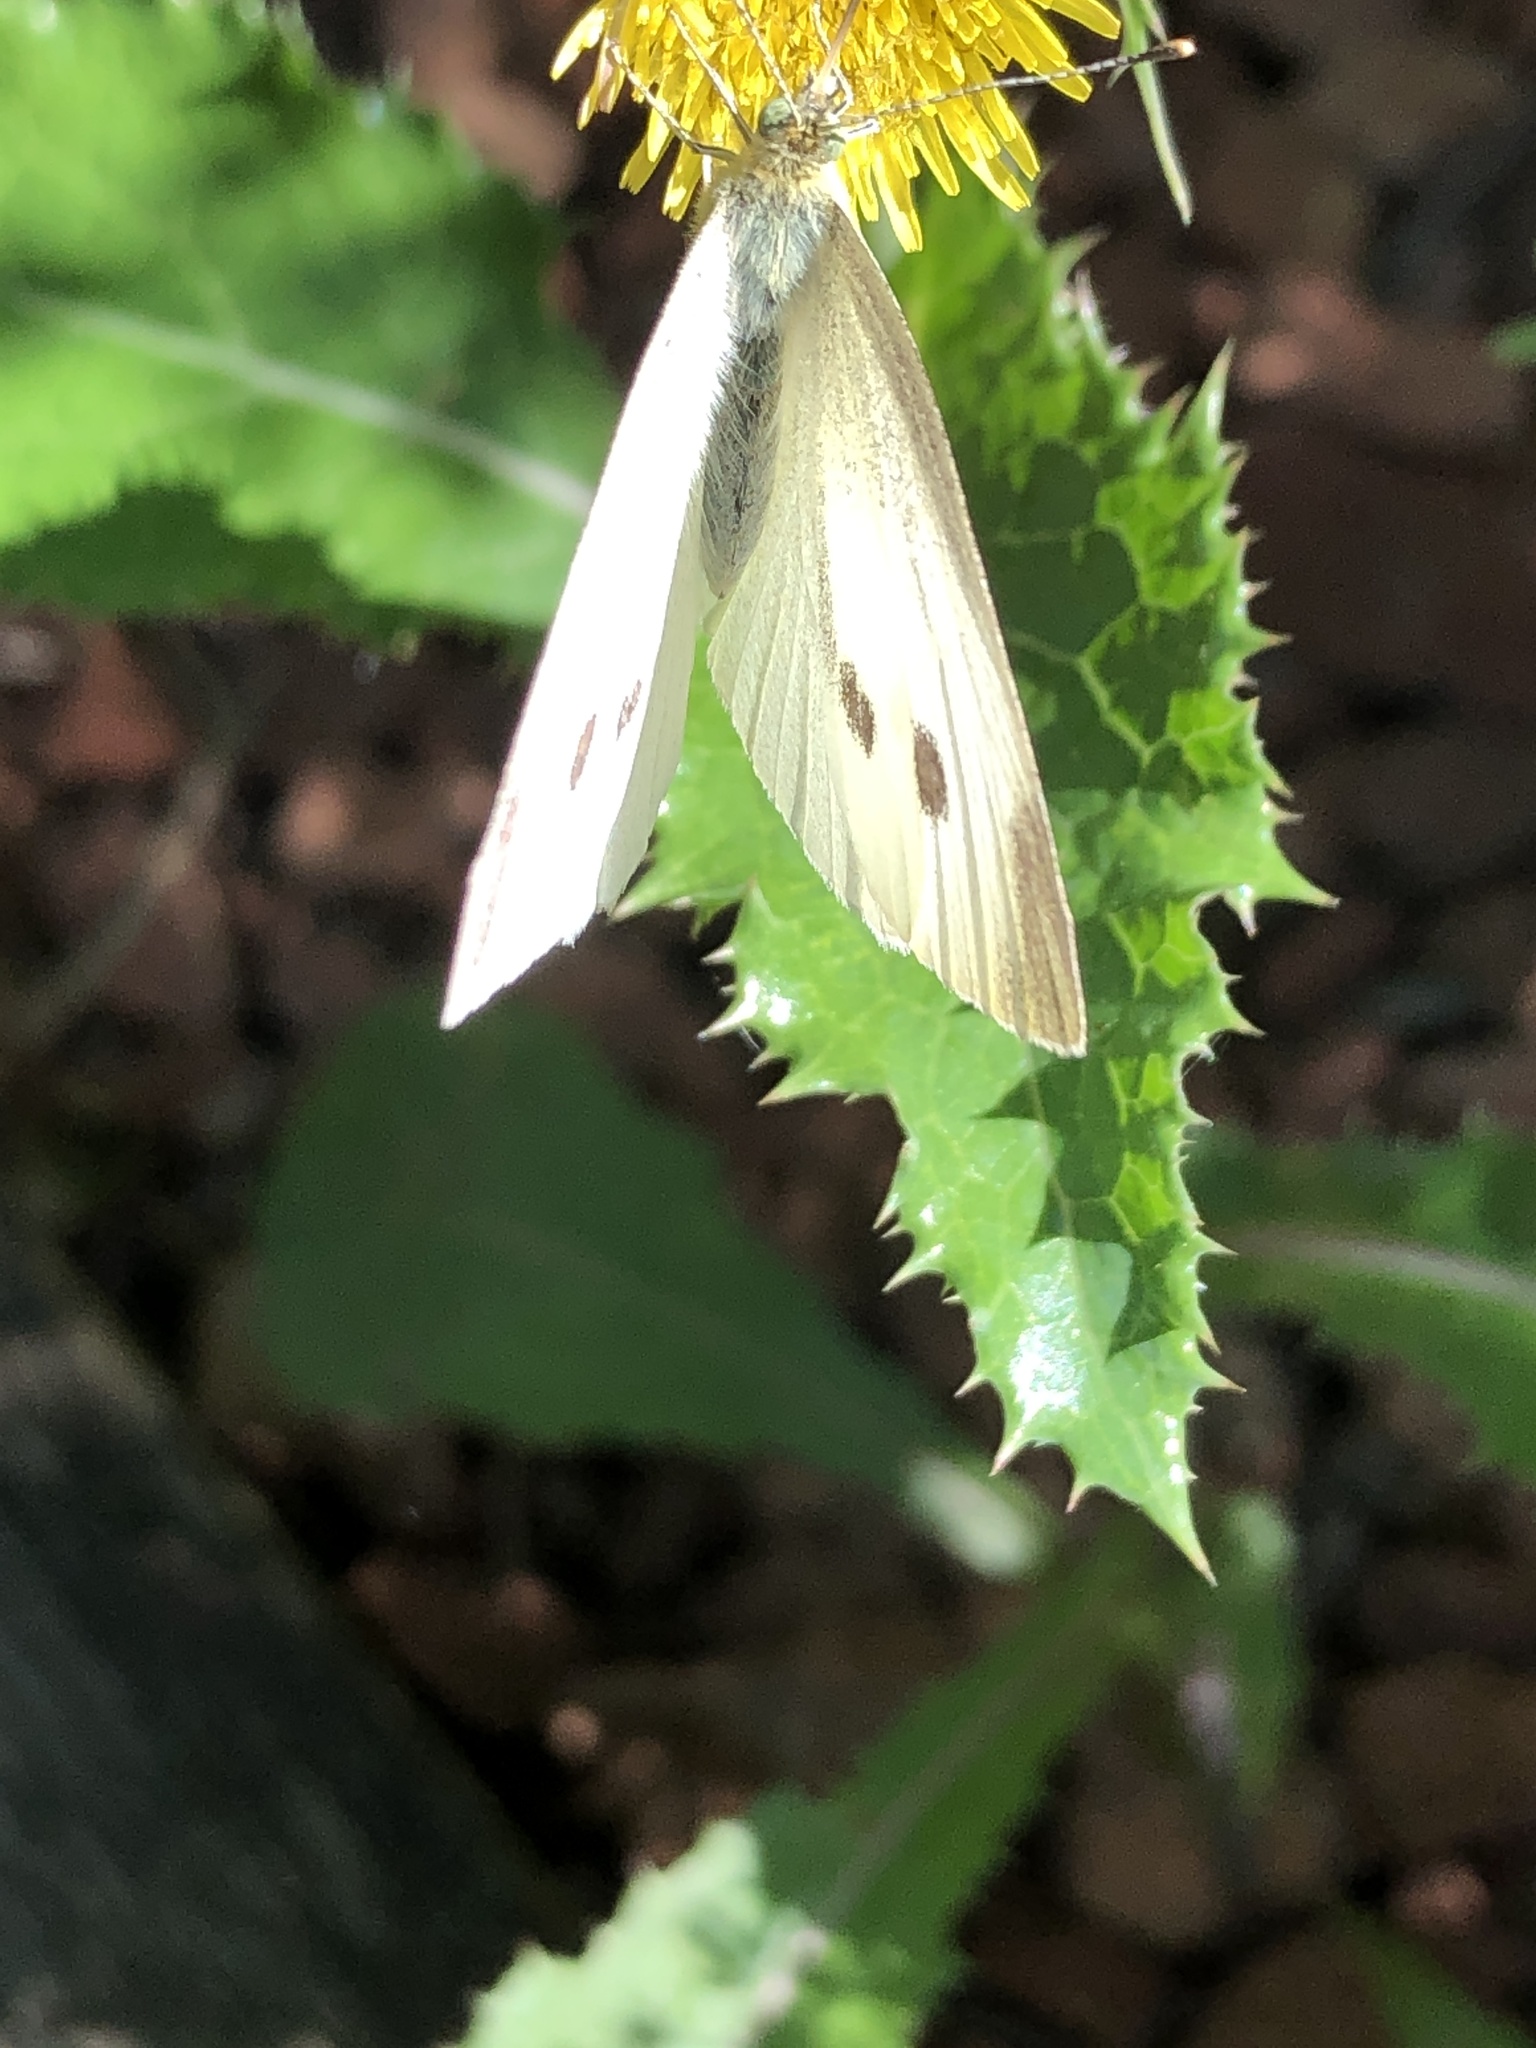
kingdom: Animalia
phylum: Arthropoda
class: Insecta
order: Lepidoptera
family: Pieridae
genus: Pieris
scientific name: Pieris rapae
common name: Small white
